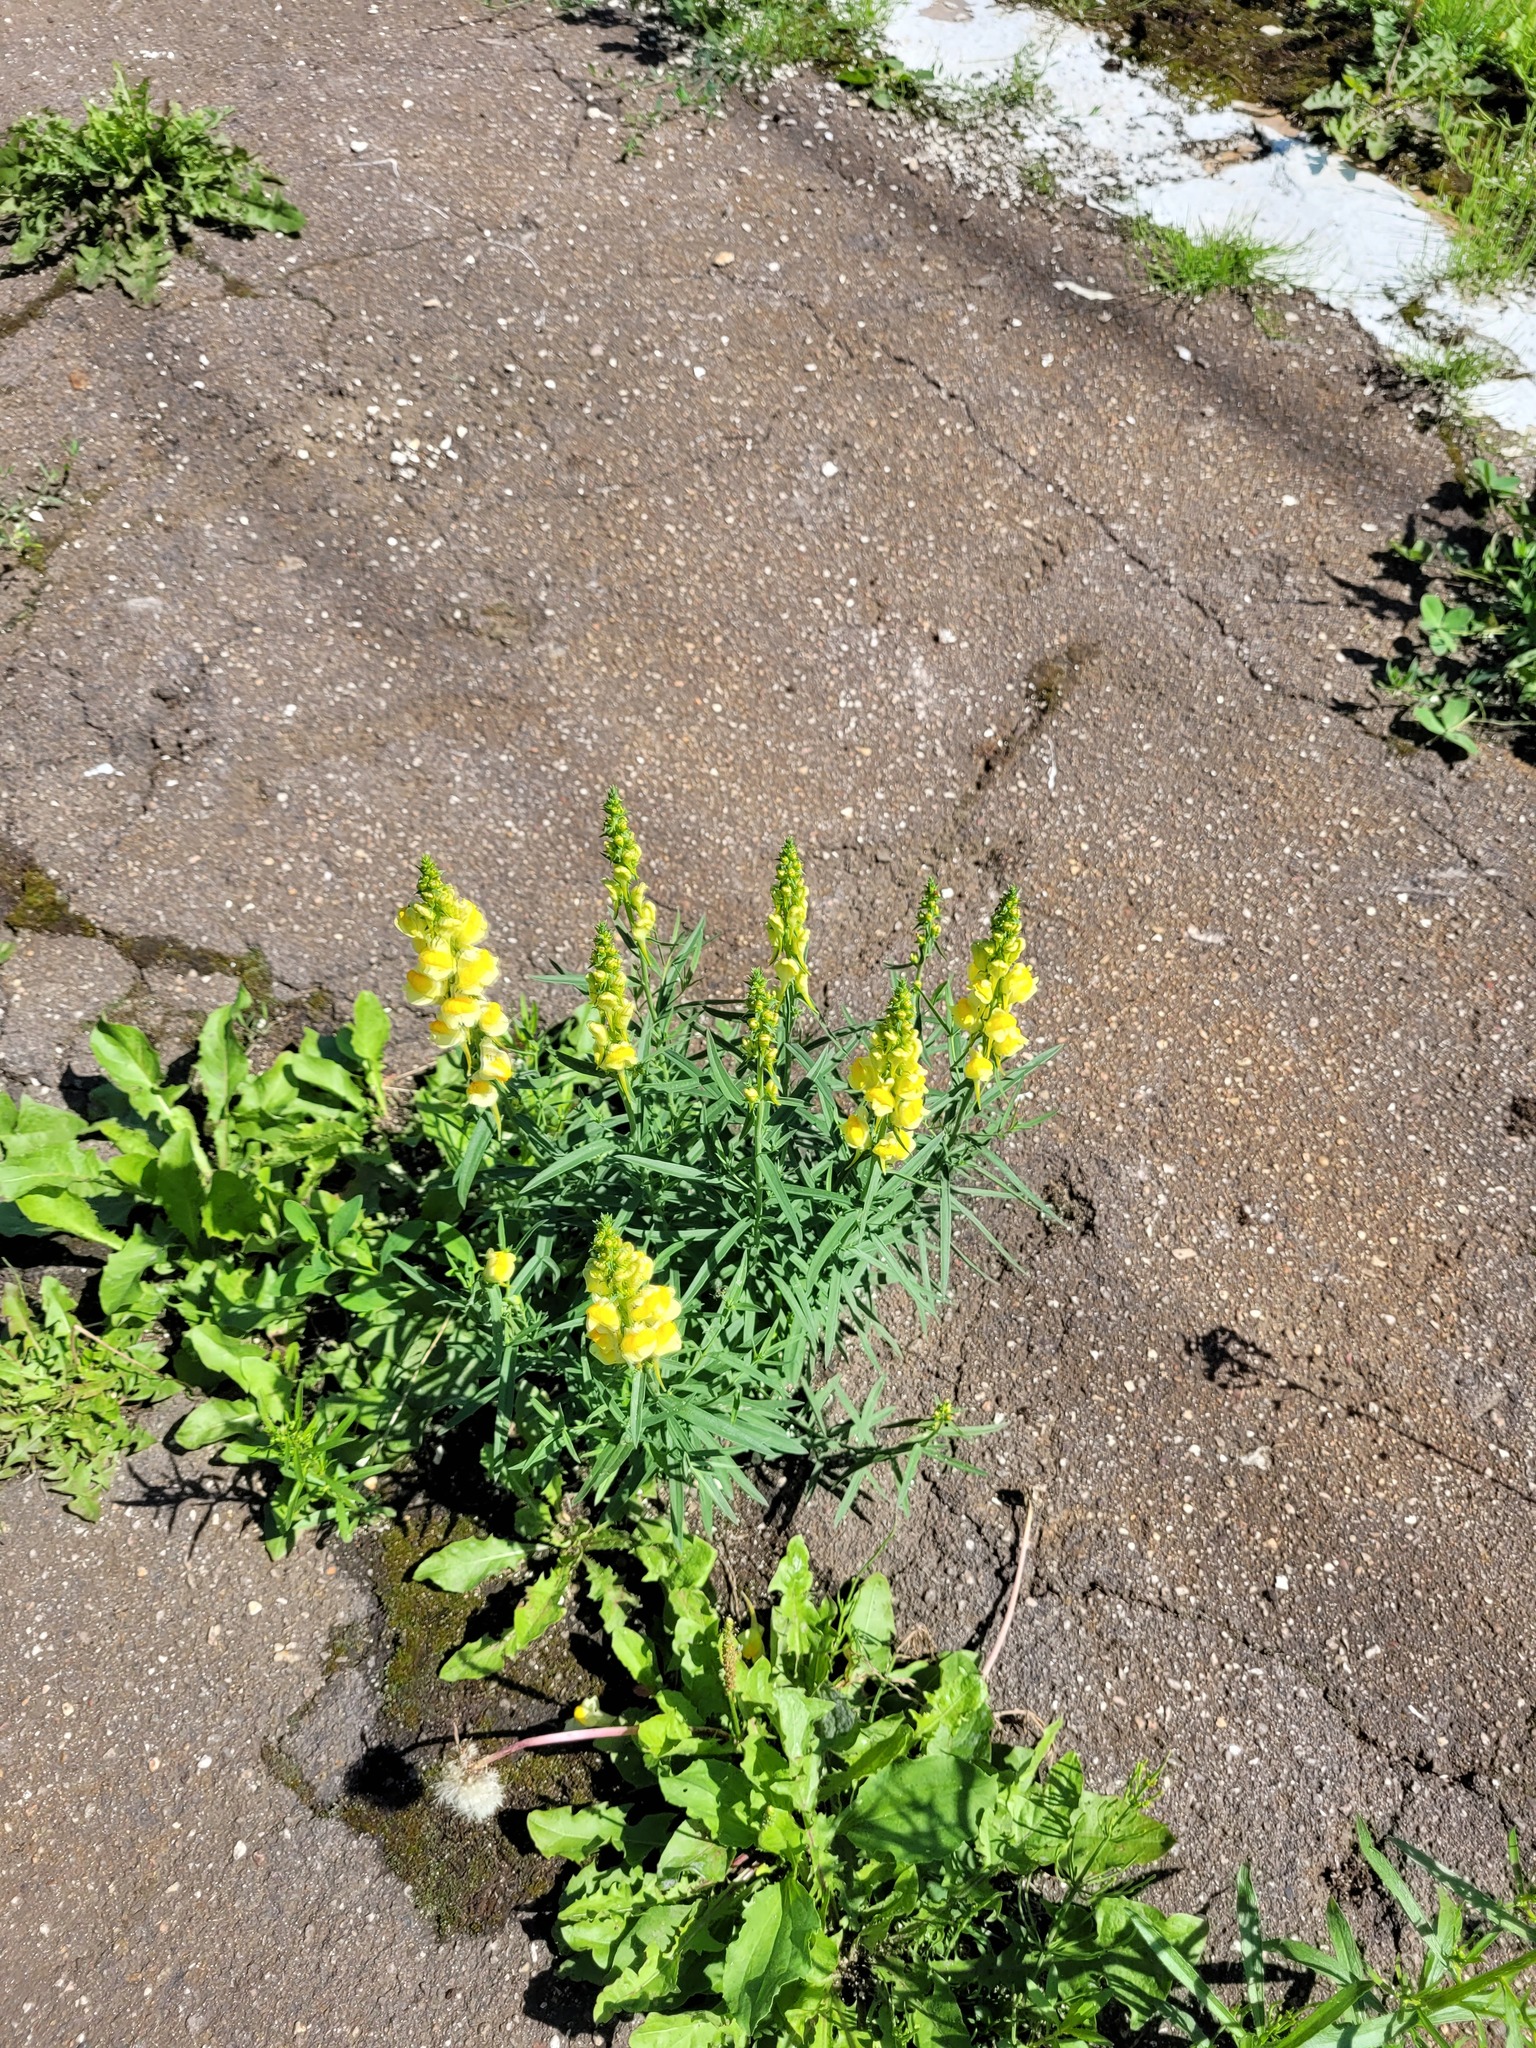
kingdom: Plantae
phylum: Tracheophyta
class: Magnoliopsida
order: Lamiales
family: Plantaginaceae
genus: Linaria
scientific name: Linaria vulgaris
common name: Butter and eggs
